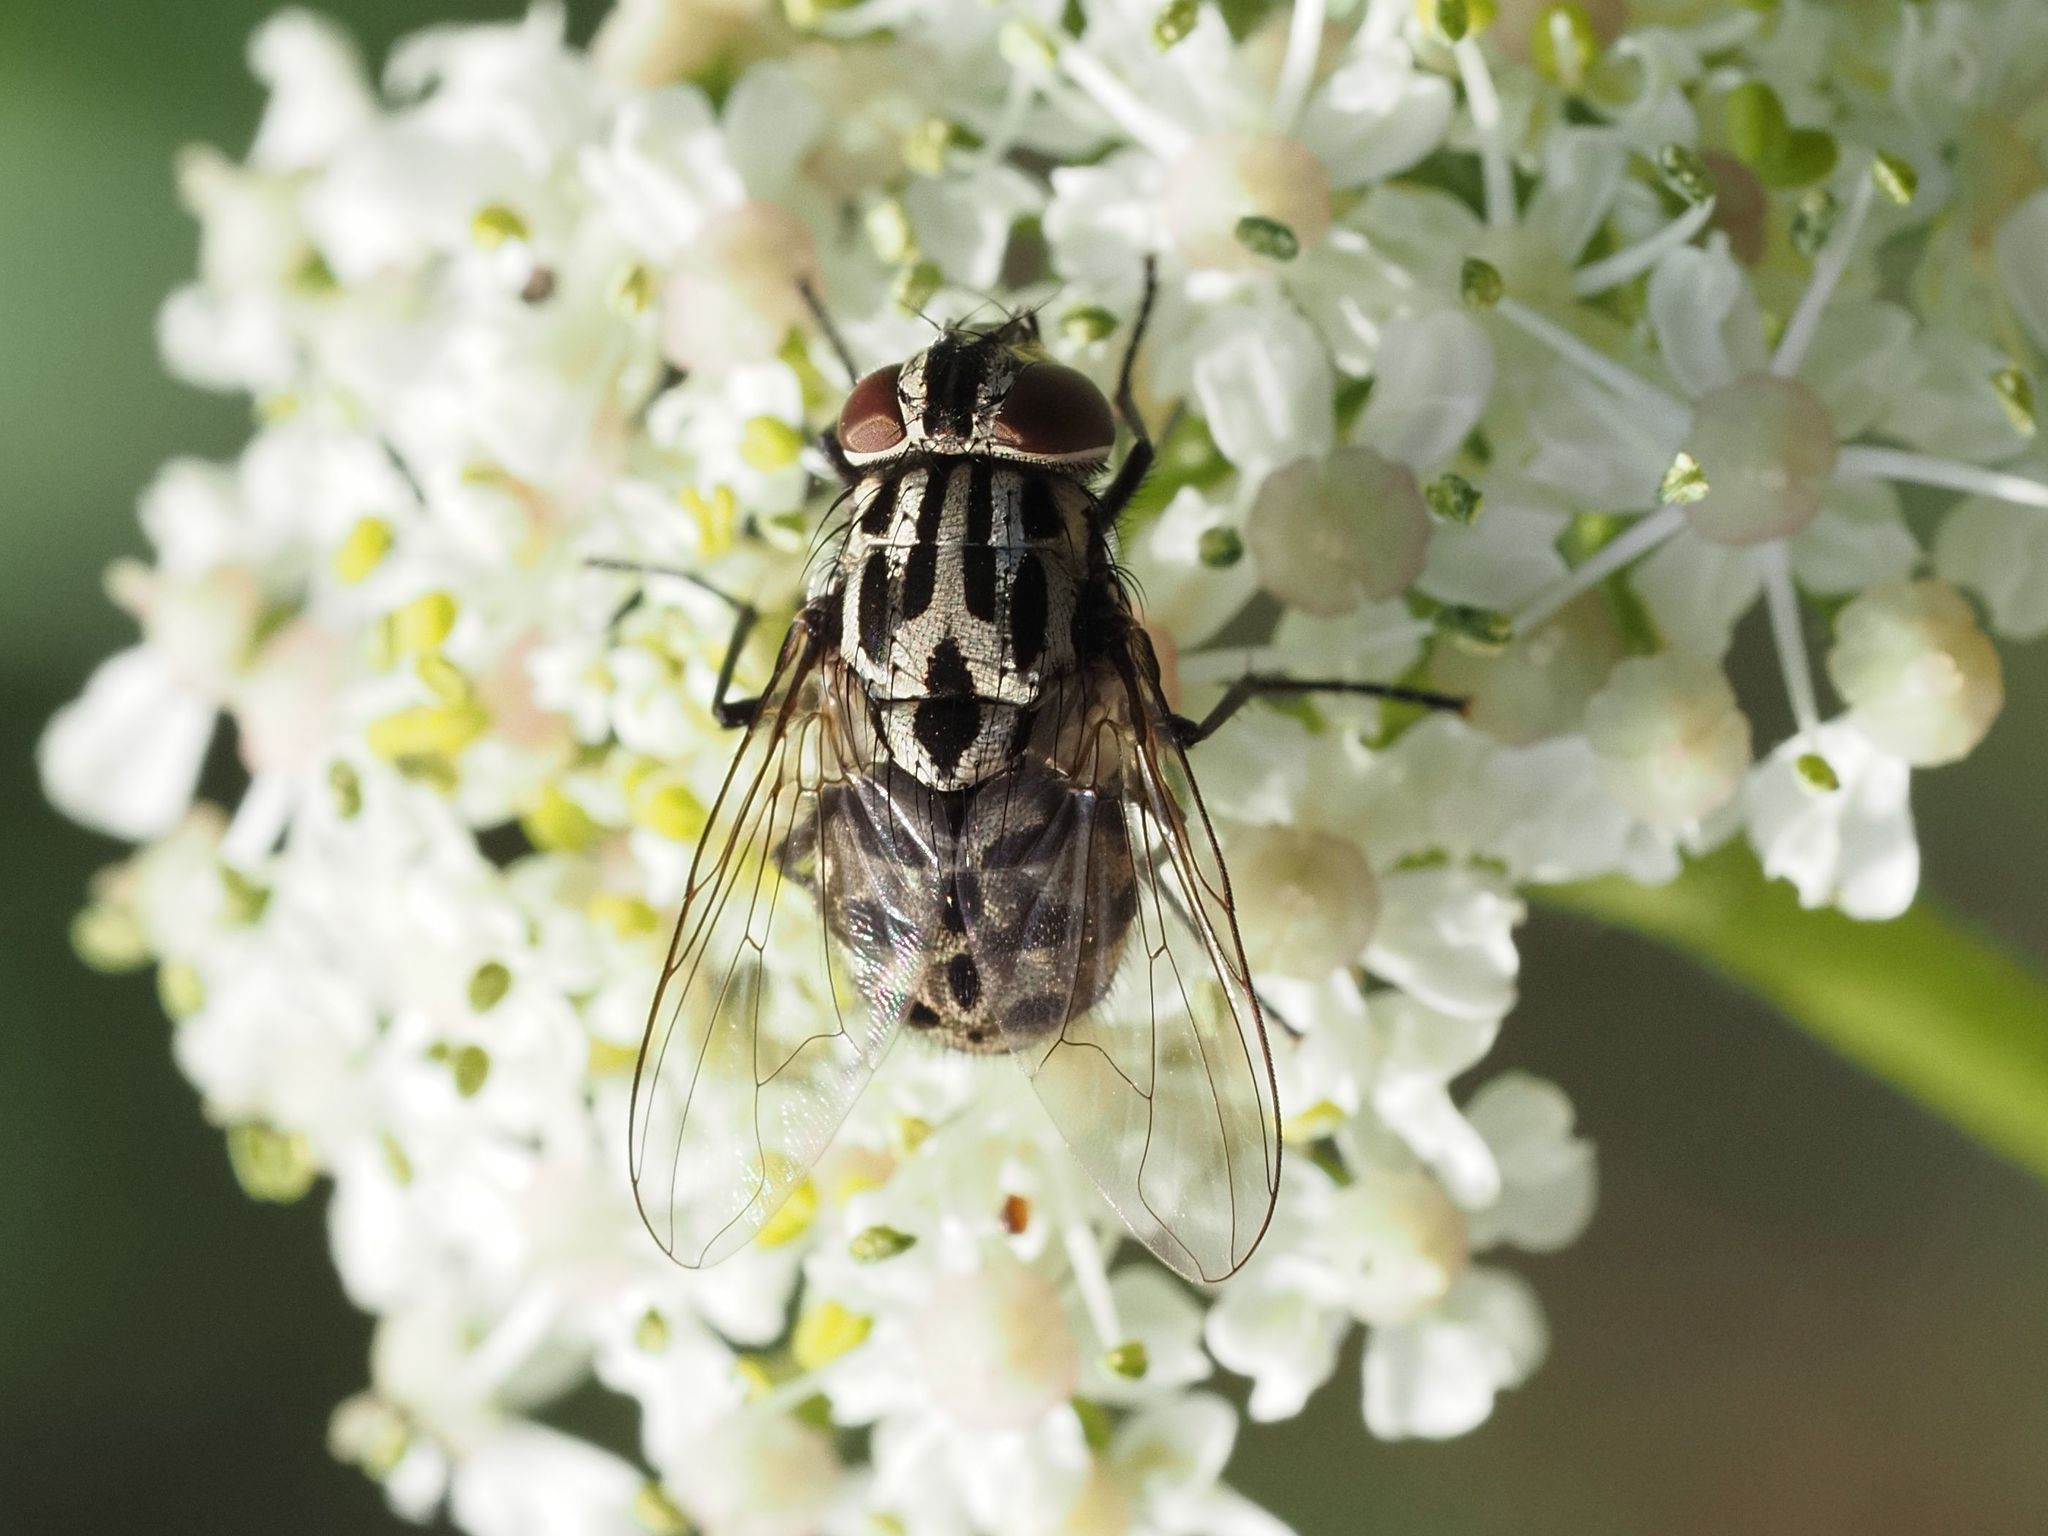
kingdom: Animalia
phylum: Arthropoda
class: Insecta
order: Diptera
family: Muscidae
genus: Graphomya
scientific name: Graphomya maculata
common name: Muscid fly
